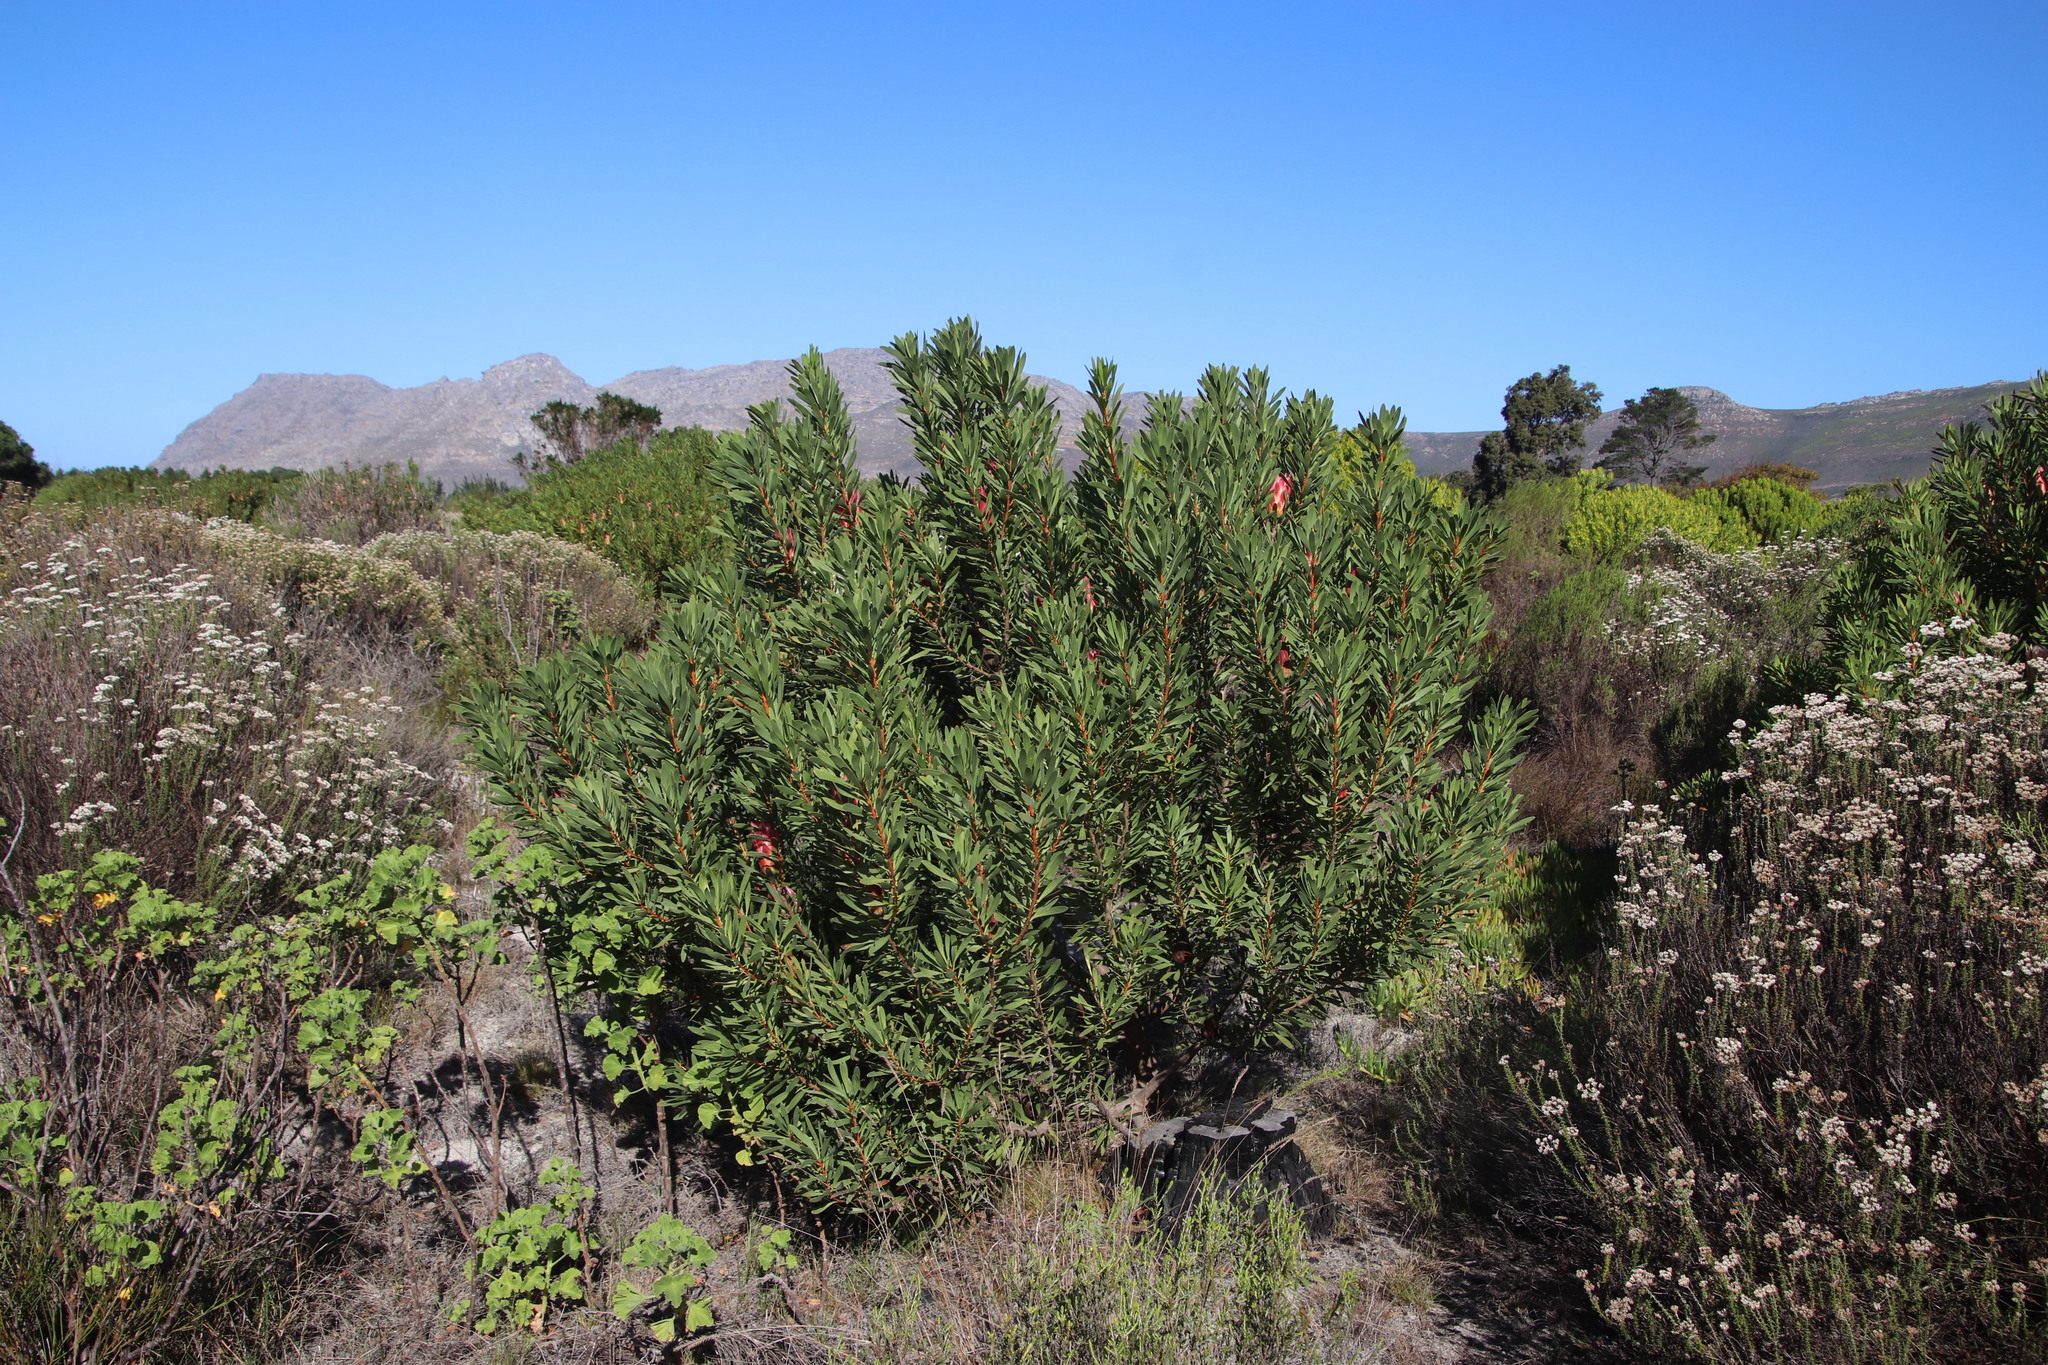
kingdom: Plantae
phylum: Tracheophyta
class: Magnoliopsida
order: Proteales
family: Proteaceae
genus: Protea
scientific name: Protea repens
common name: Sugarbush
